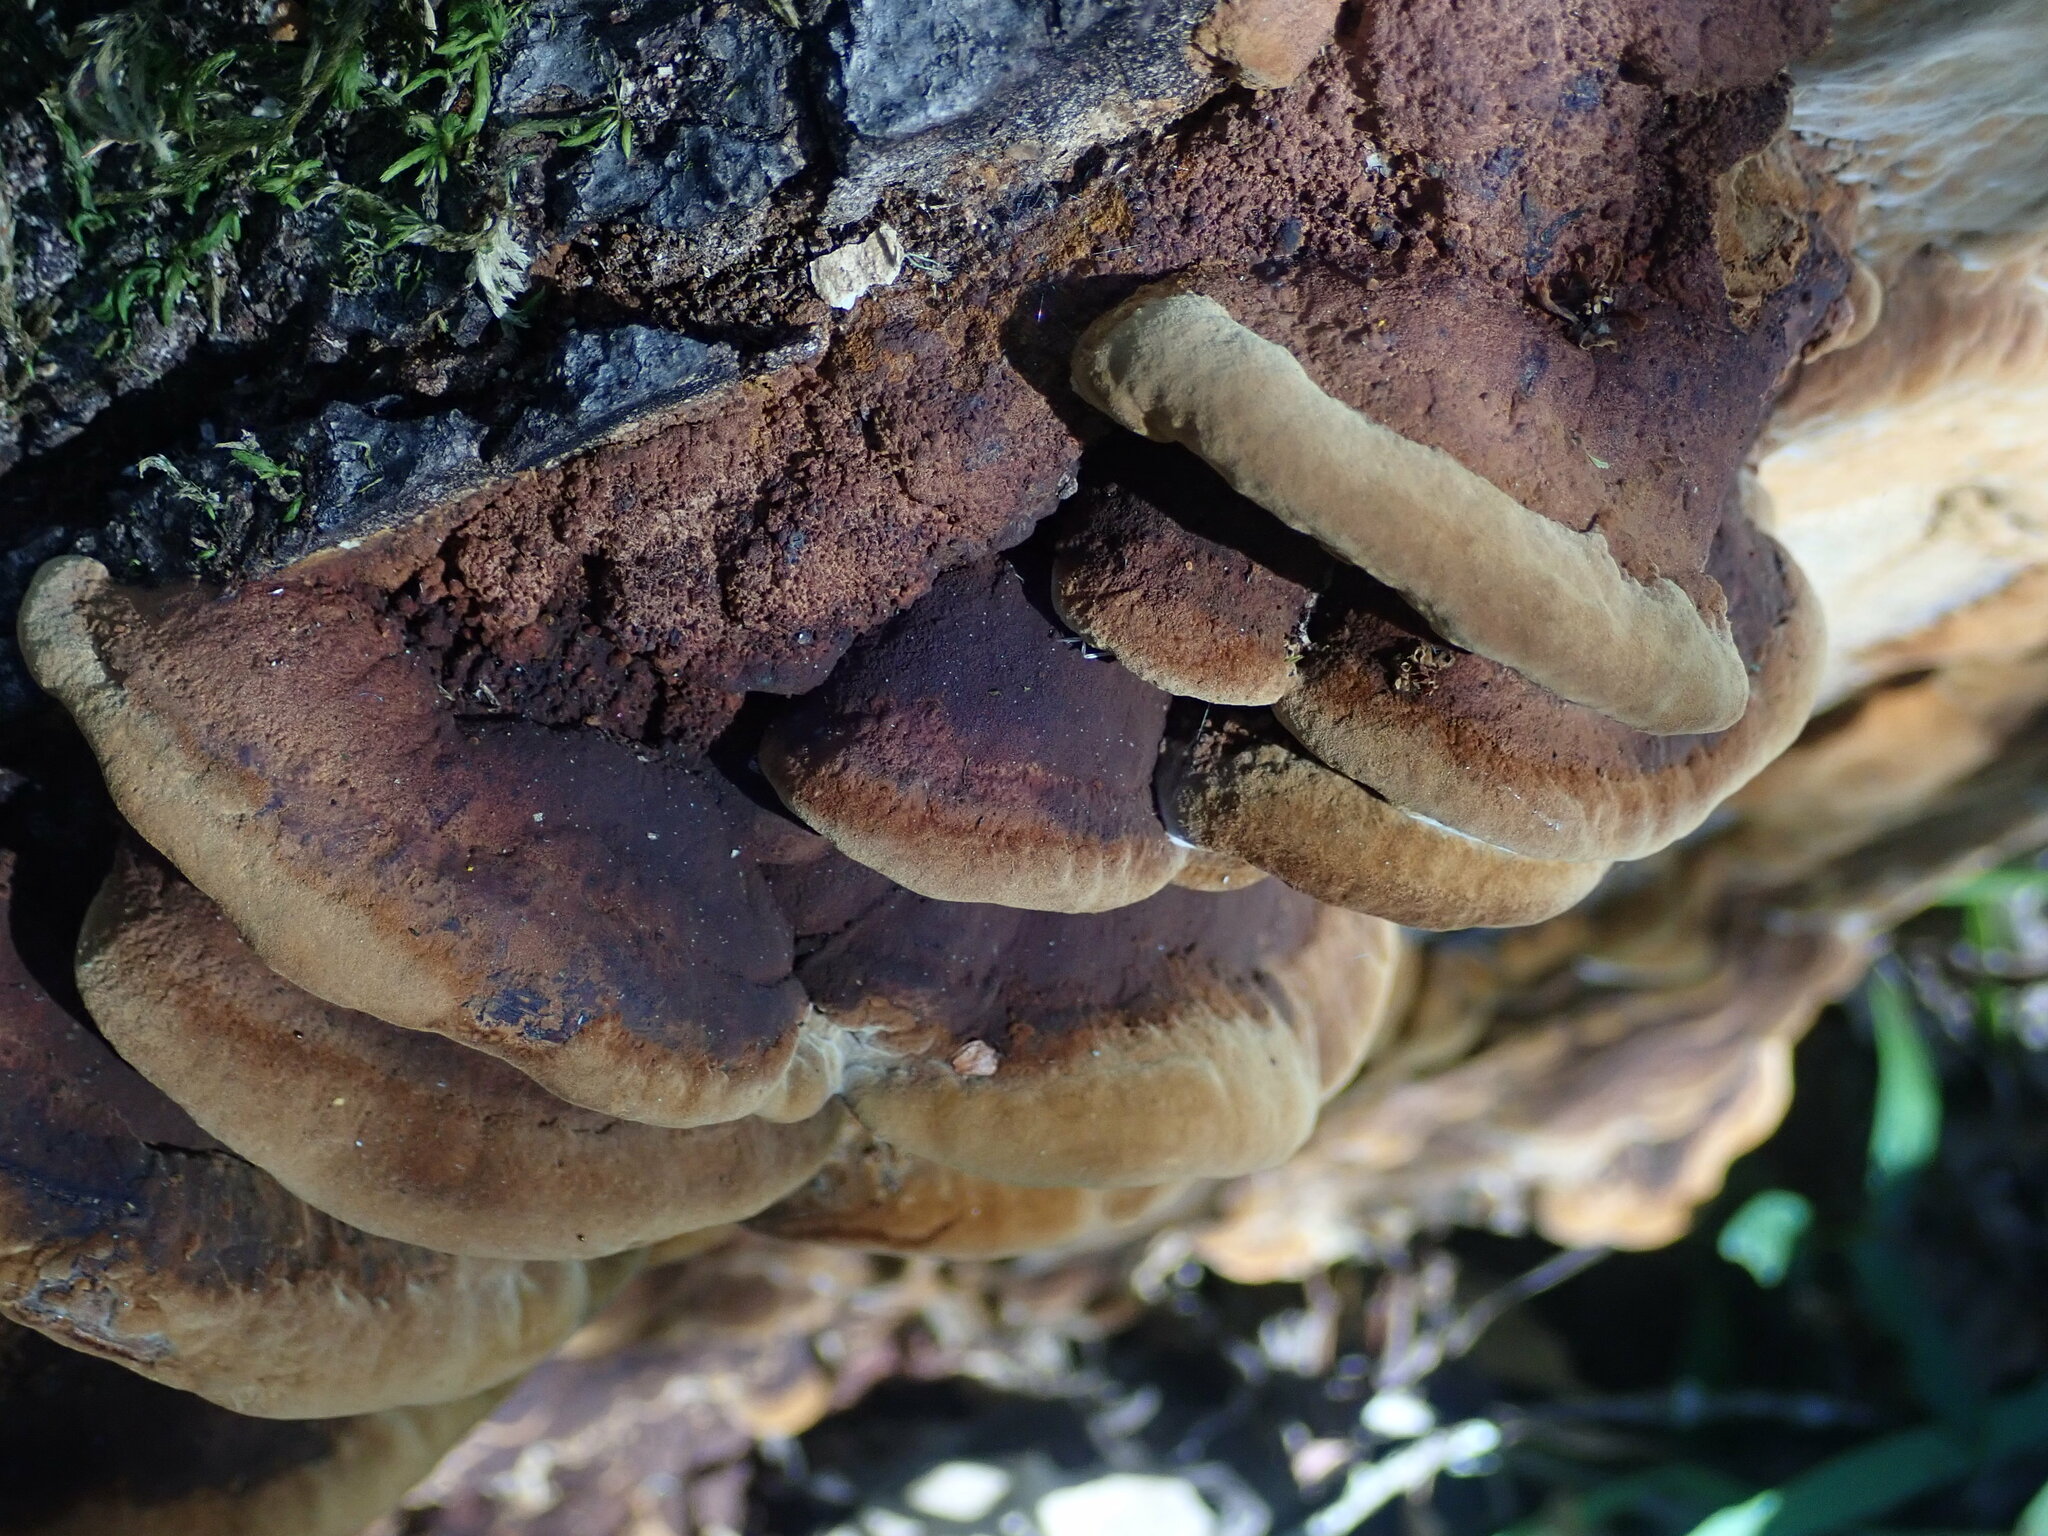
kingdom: Fungi
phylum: Basidiomycota
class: Agaricomycetes
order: Hymenochaetales
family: Hymenochaetaceae
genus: Phellinus
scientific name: Phellinus gilvus
